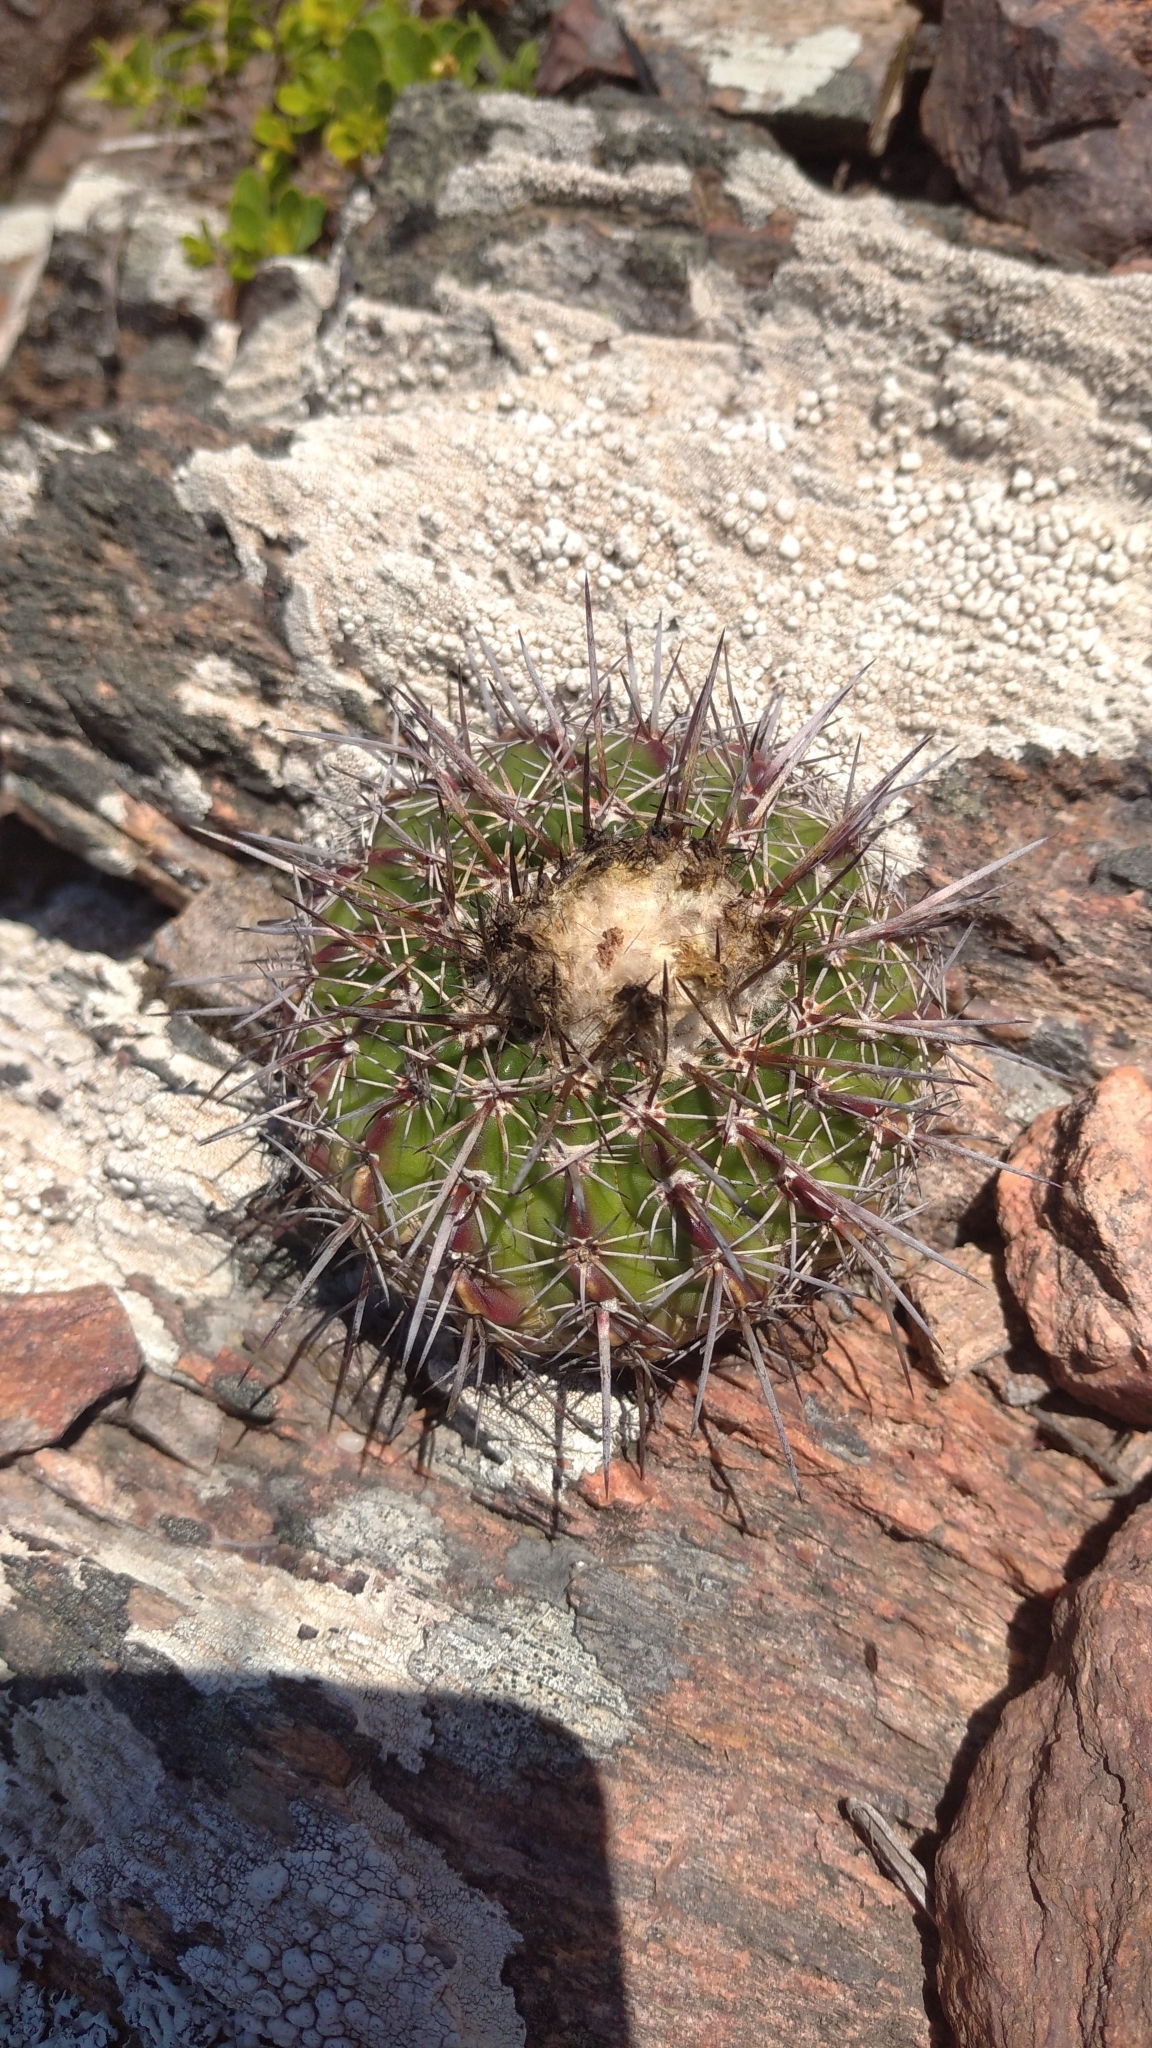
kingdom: Plantae
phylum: Tracheophyta
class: Magnoliopsida
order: Caryophyllales
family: Cactaceae
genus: Parodia
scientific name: Parodia mammulosa
